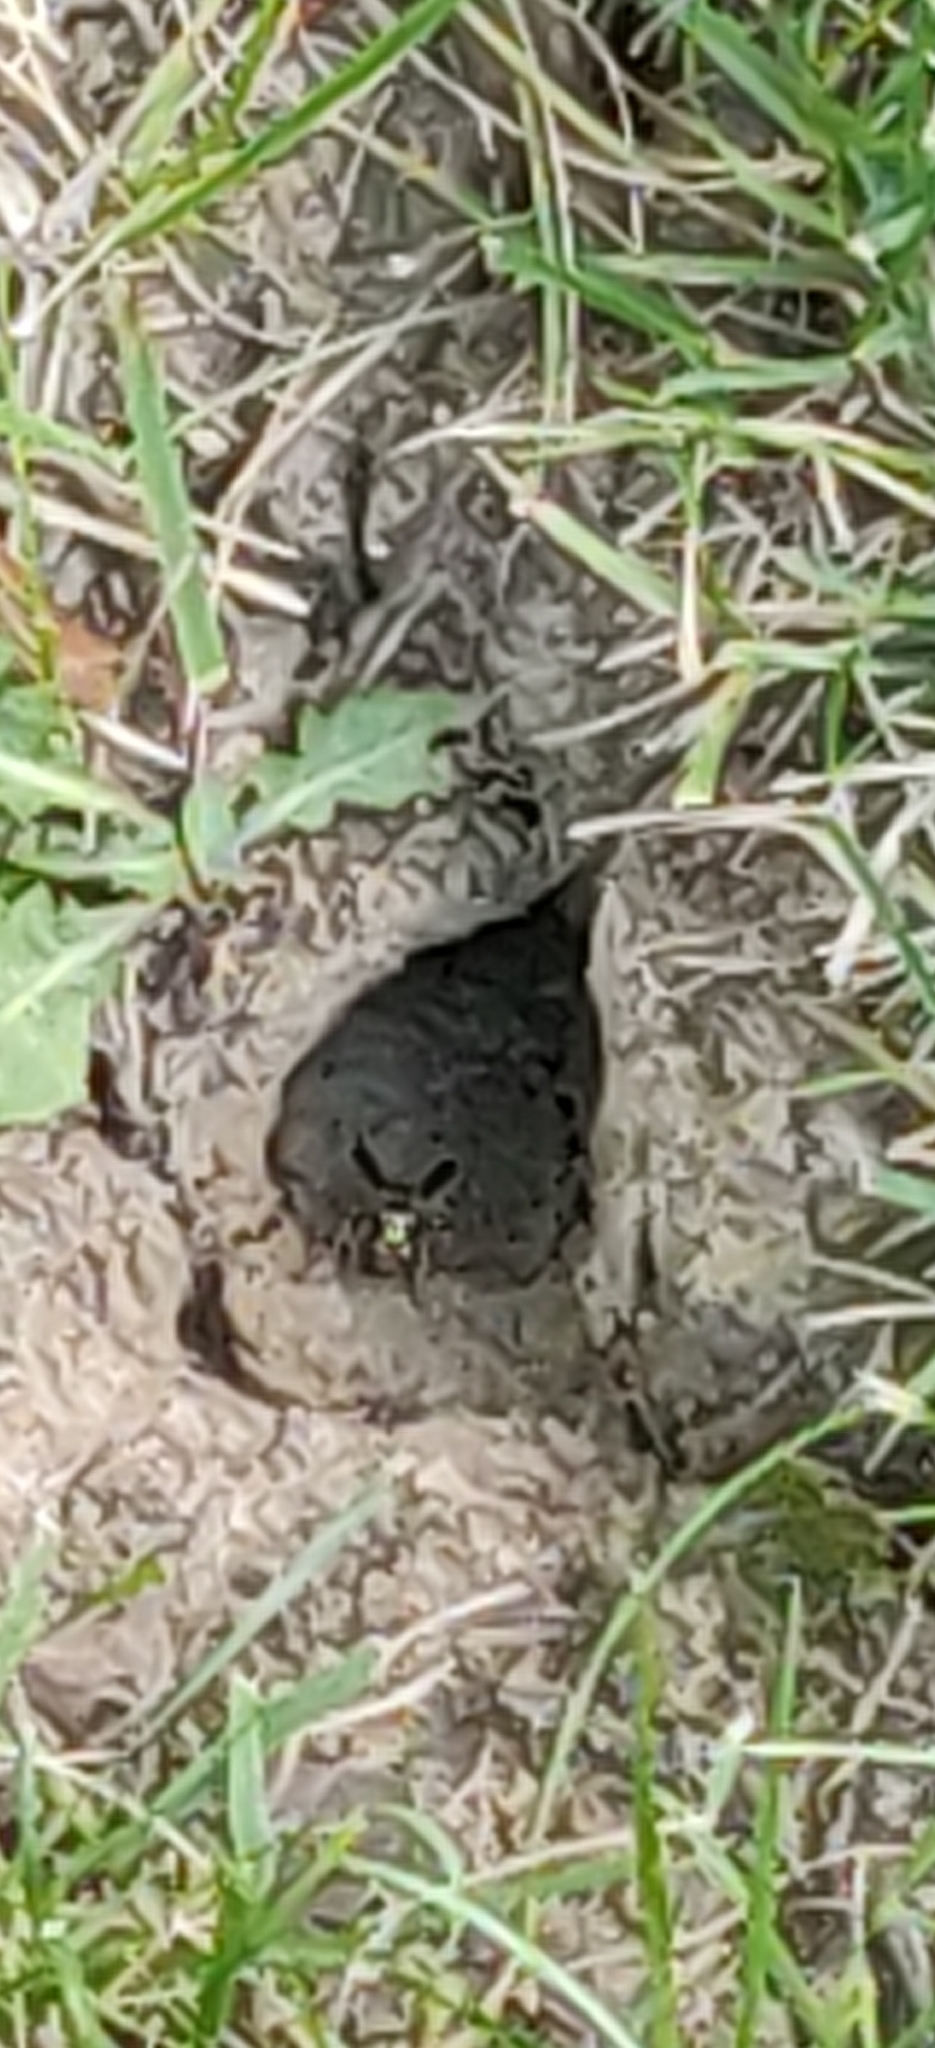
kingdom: Animalia
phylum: Arthropoda
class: Insecta
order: Hymenoptera
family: Vespidae
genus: Vespula
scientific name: Vespula
